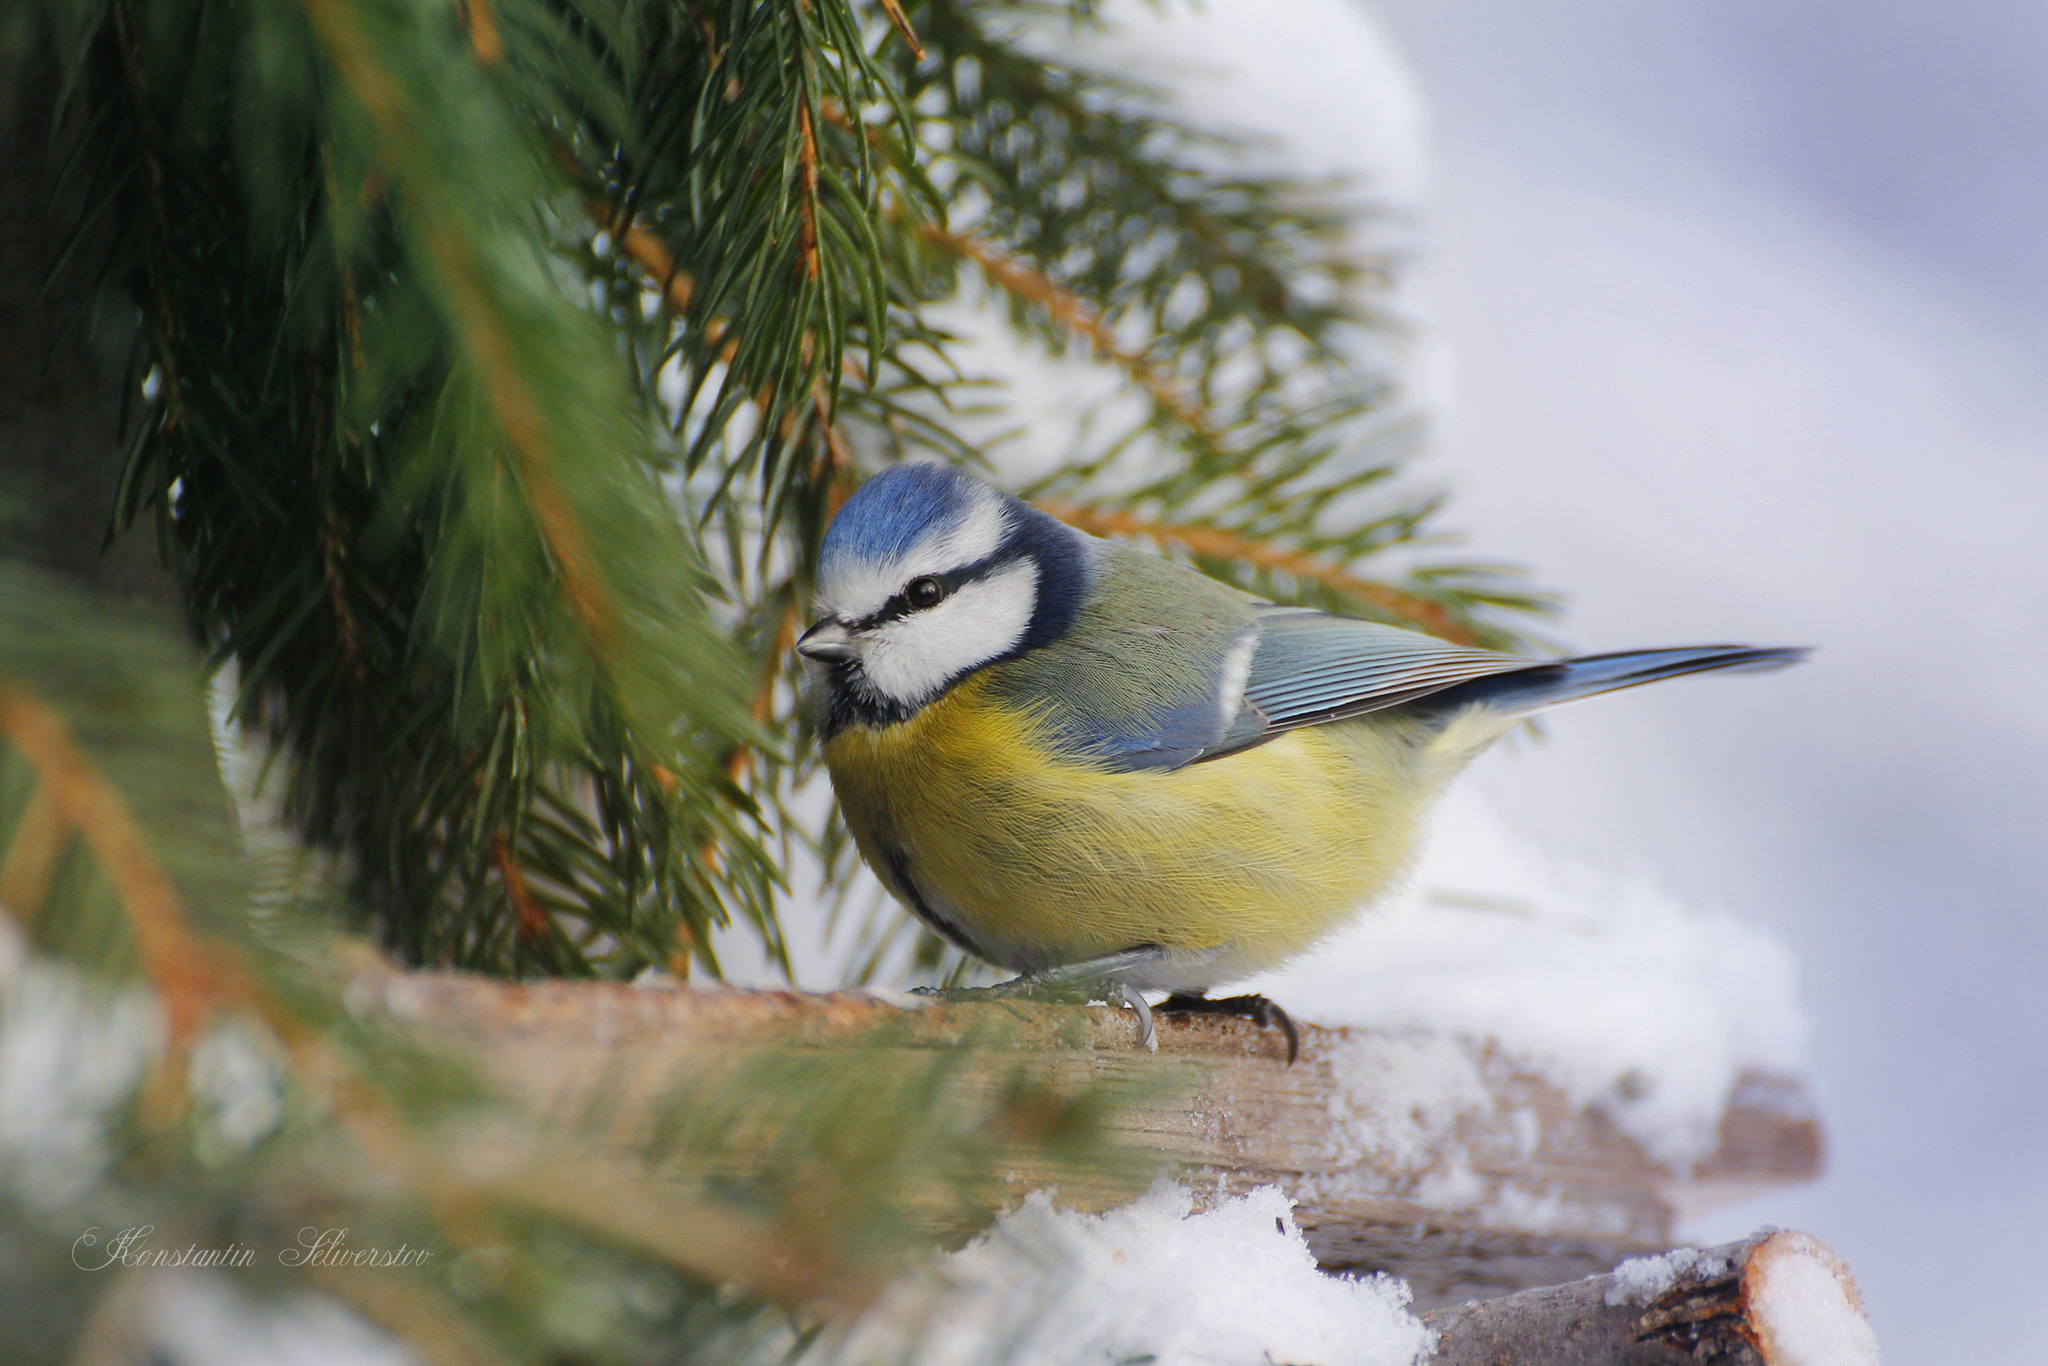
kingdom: Animalia
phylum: Chordata
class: Aves
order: Passeriformes
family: Paridae
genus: Cyanistes
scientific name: Cyanistes caeruleus
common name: Eurasian blue tit
